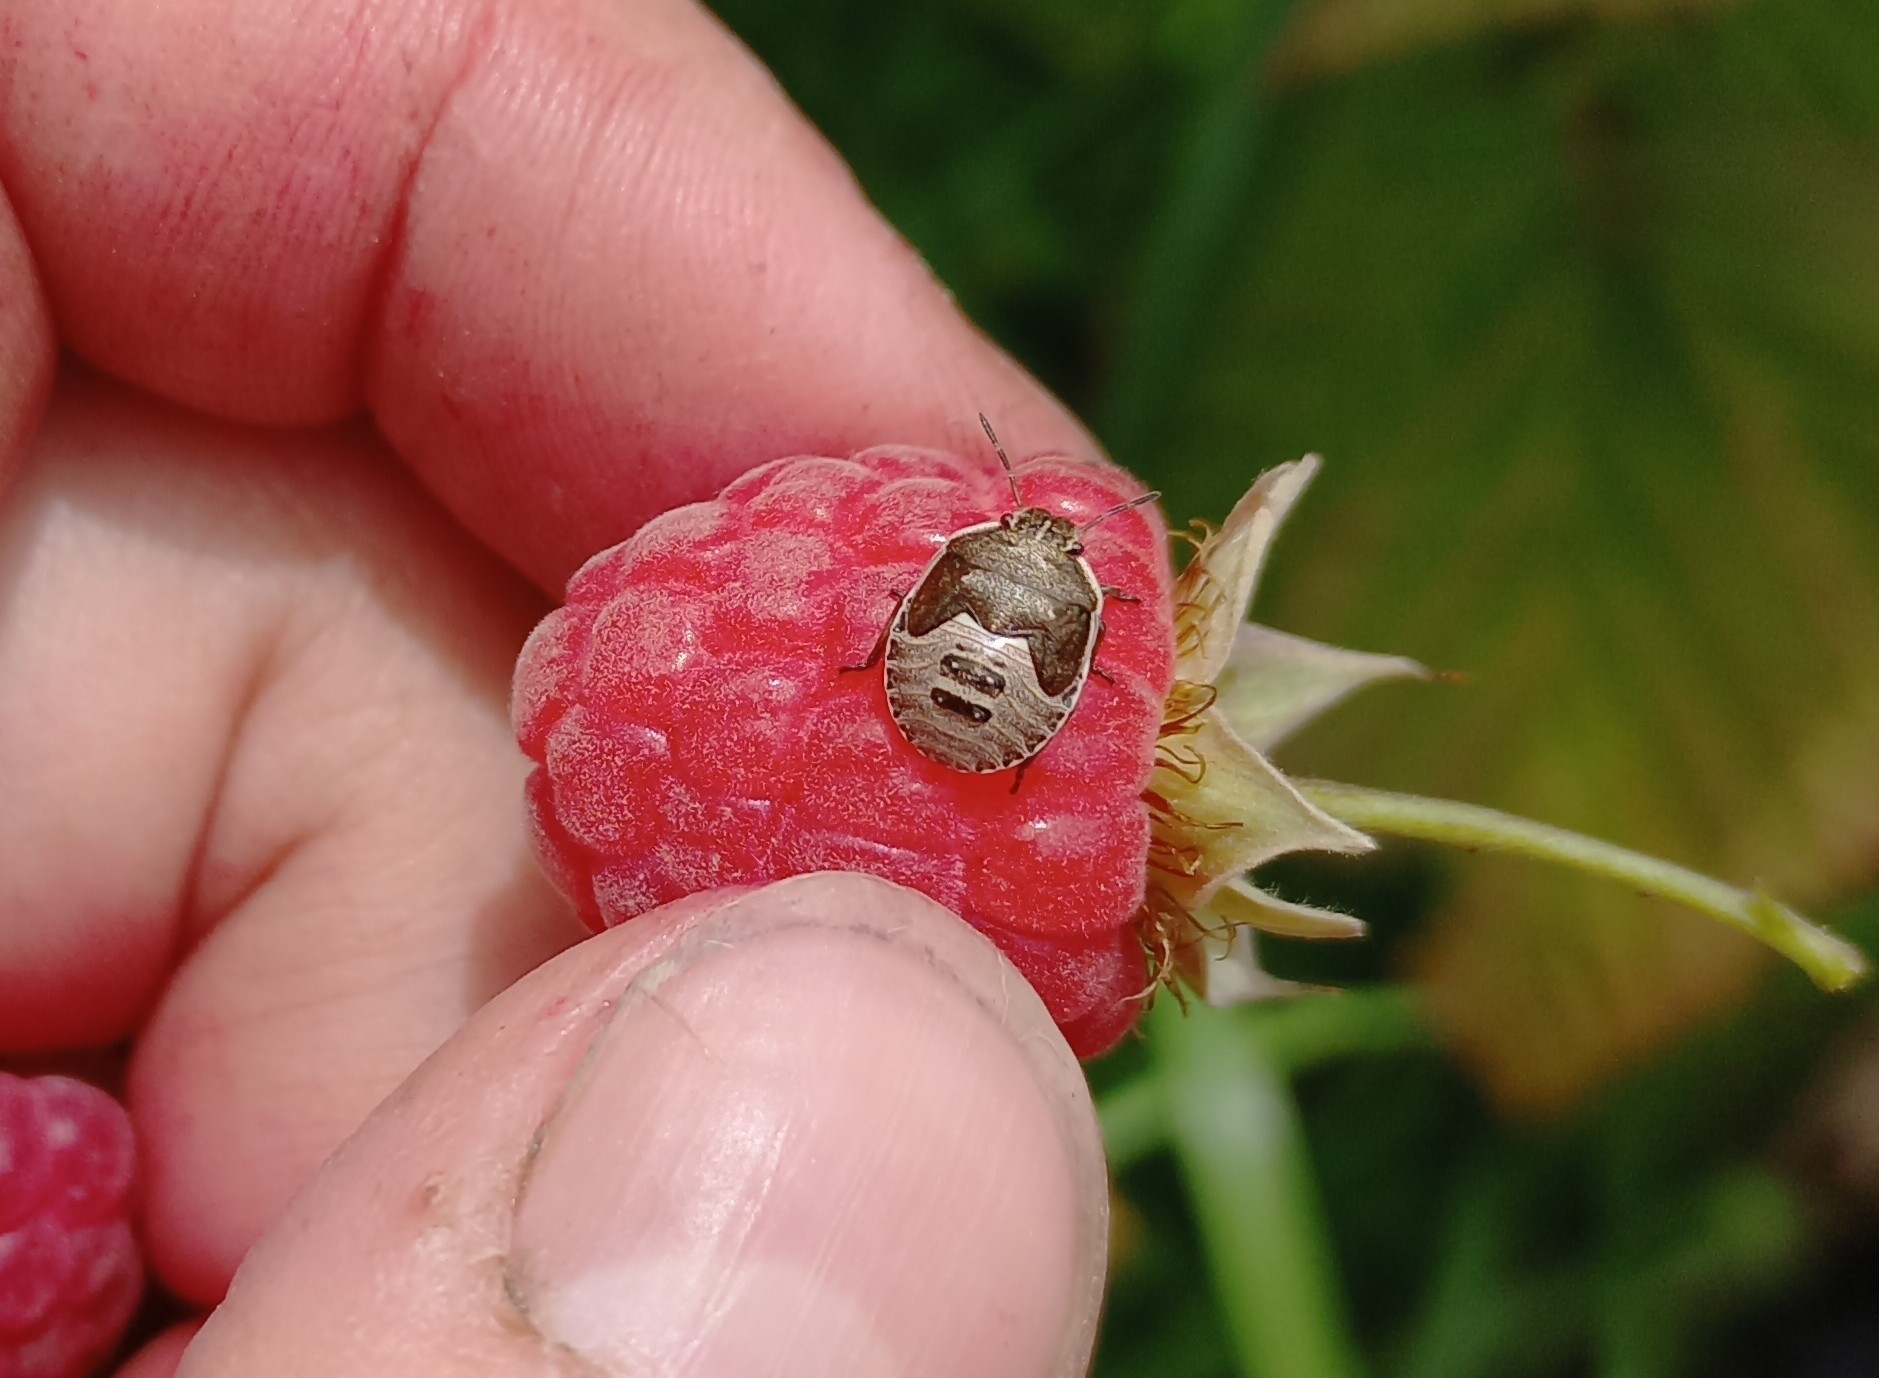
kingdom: Animalia
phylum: Arthropoda
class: Insecta
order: Hemiptera
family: Pentatomidae
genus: Dictyotus
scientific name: Dictyotus caenosus
